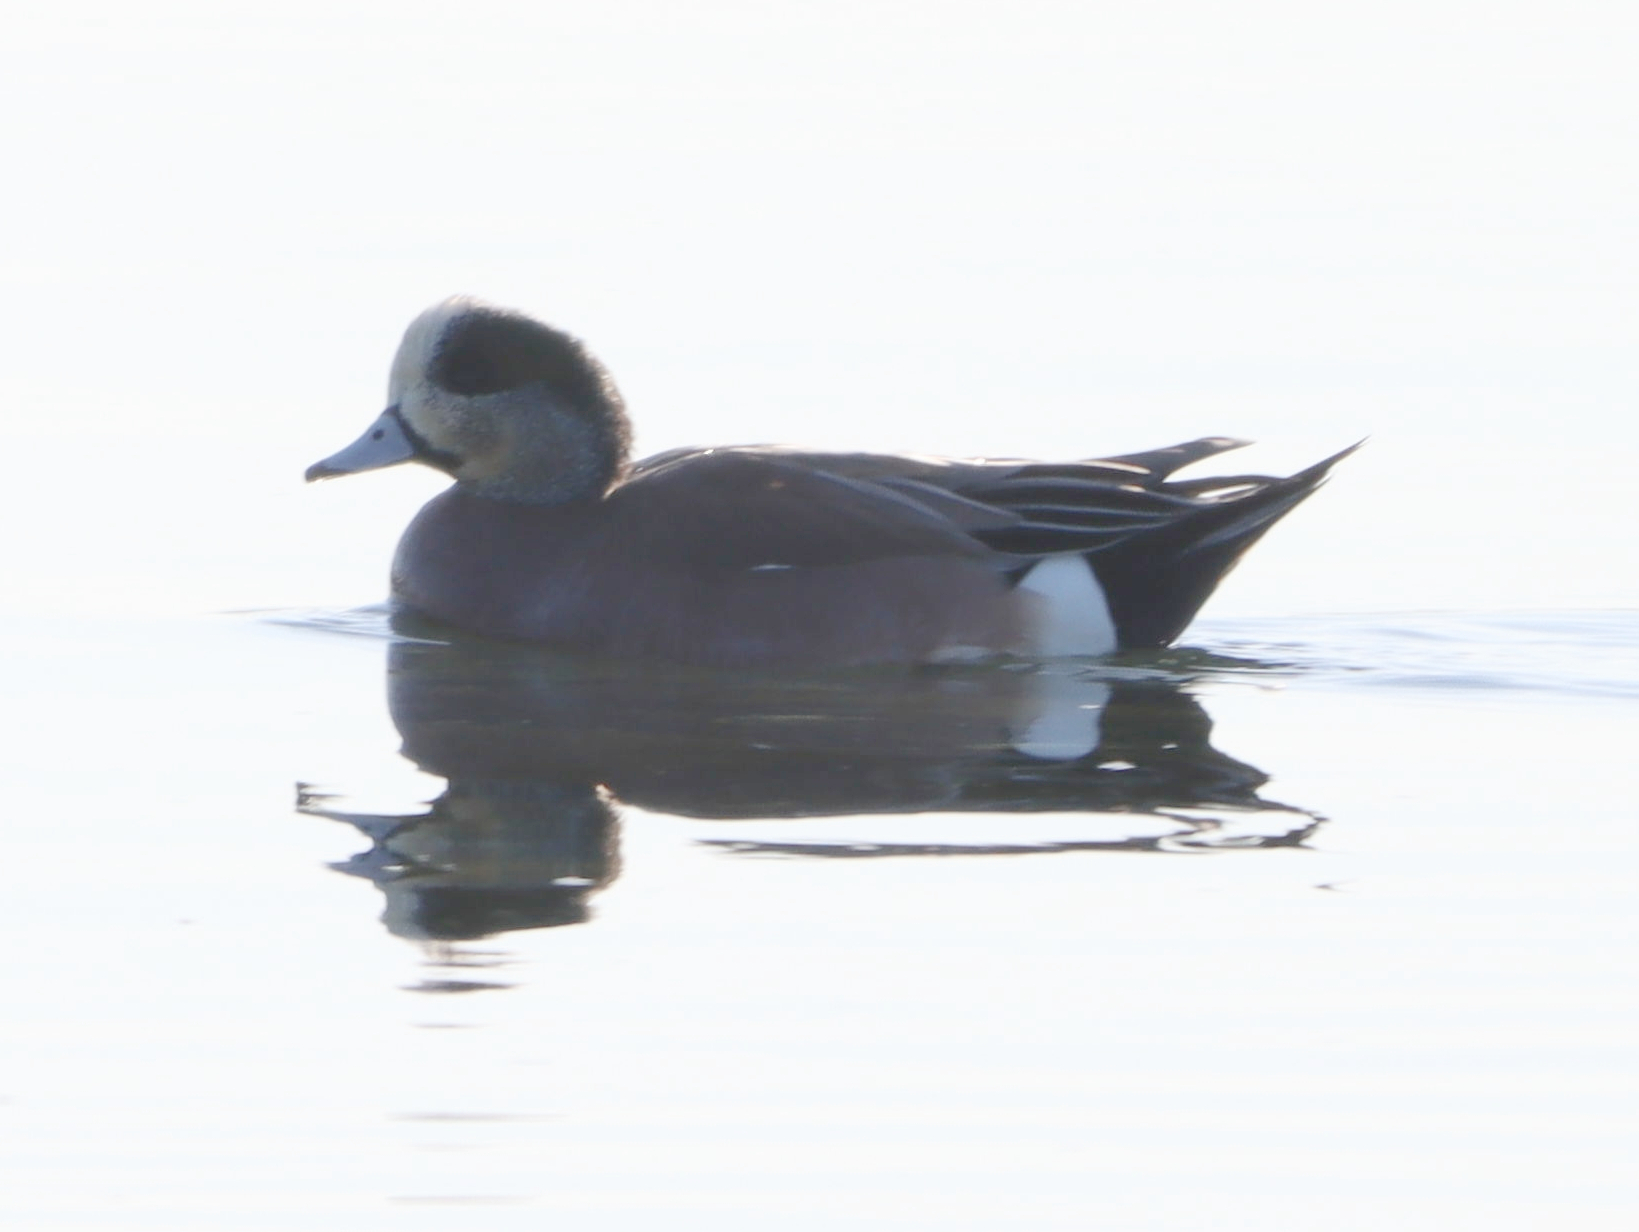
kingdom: Animalia
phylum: Chordata
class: Aves
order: Anseriformes
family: Anatidae
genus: Mareca
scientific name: Mareca americana
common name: American wigeon
